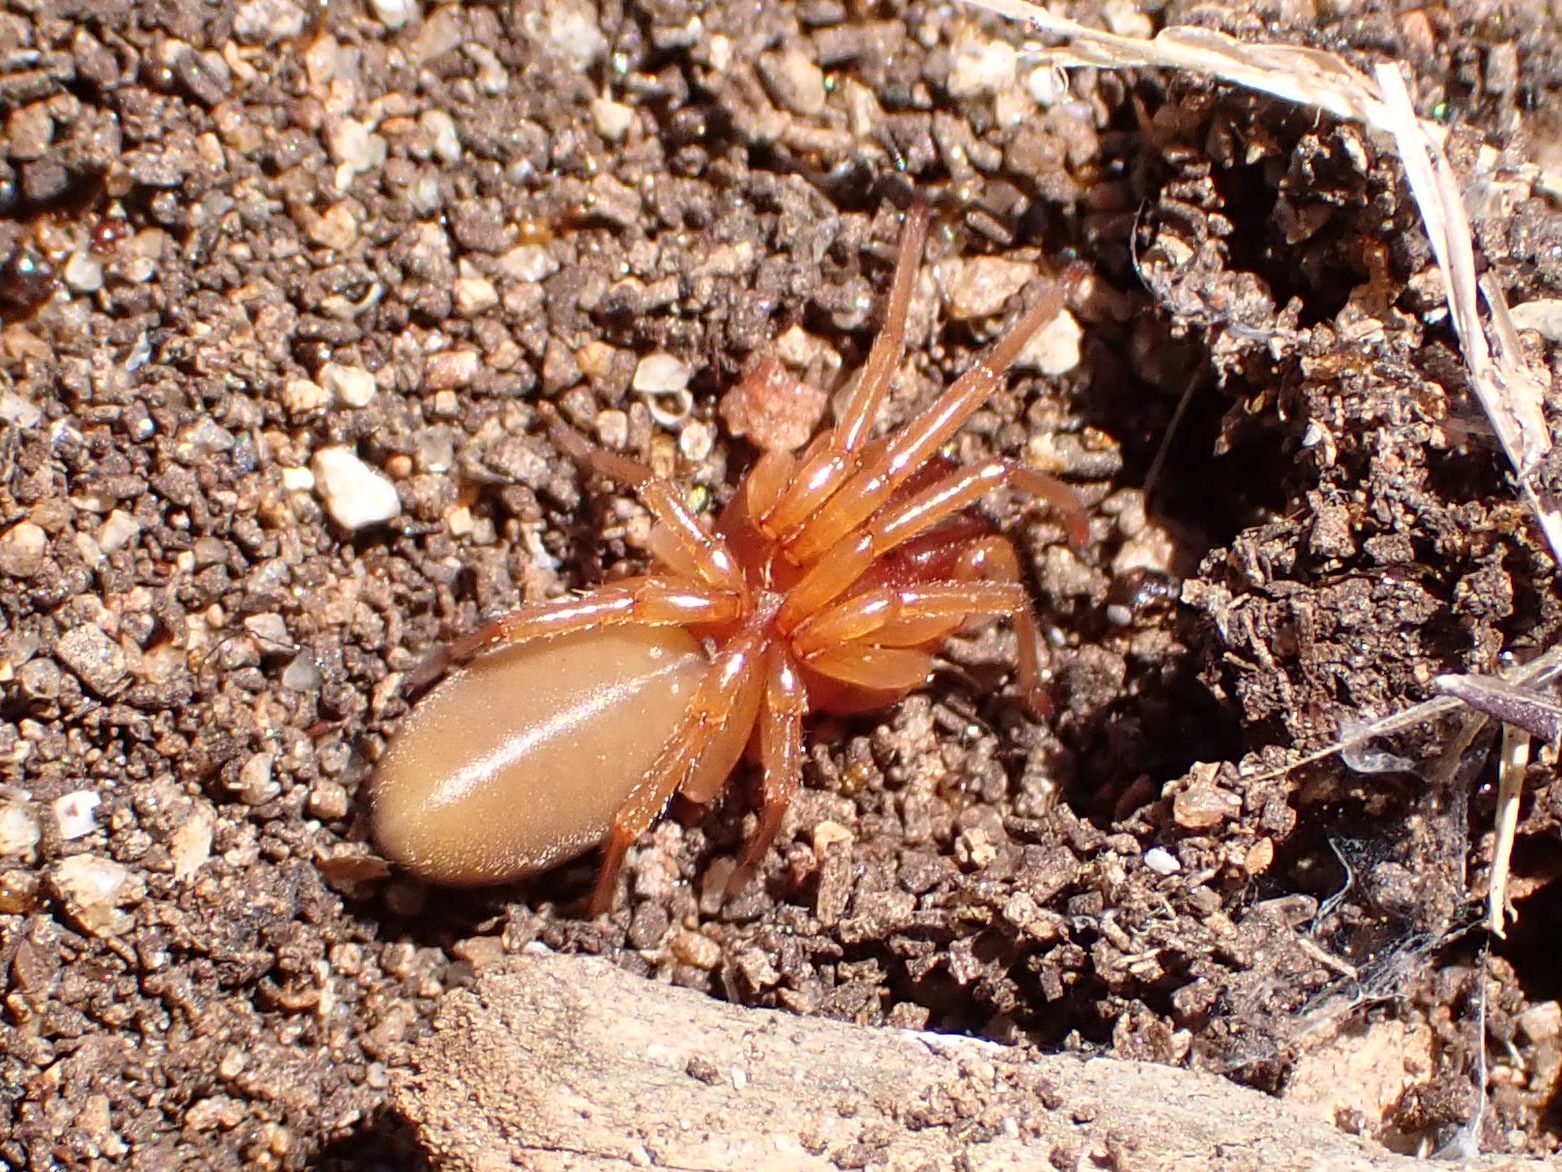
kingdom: Animalia
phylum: Arthropoda
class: Arachnida
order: Araneae
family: Dysderidae
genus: Dysdera
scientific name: Dysdera crocata
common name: Woodlouse spider
